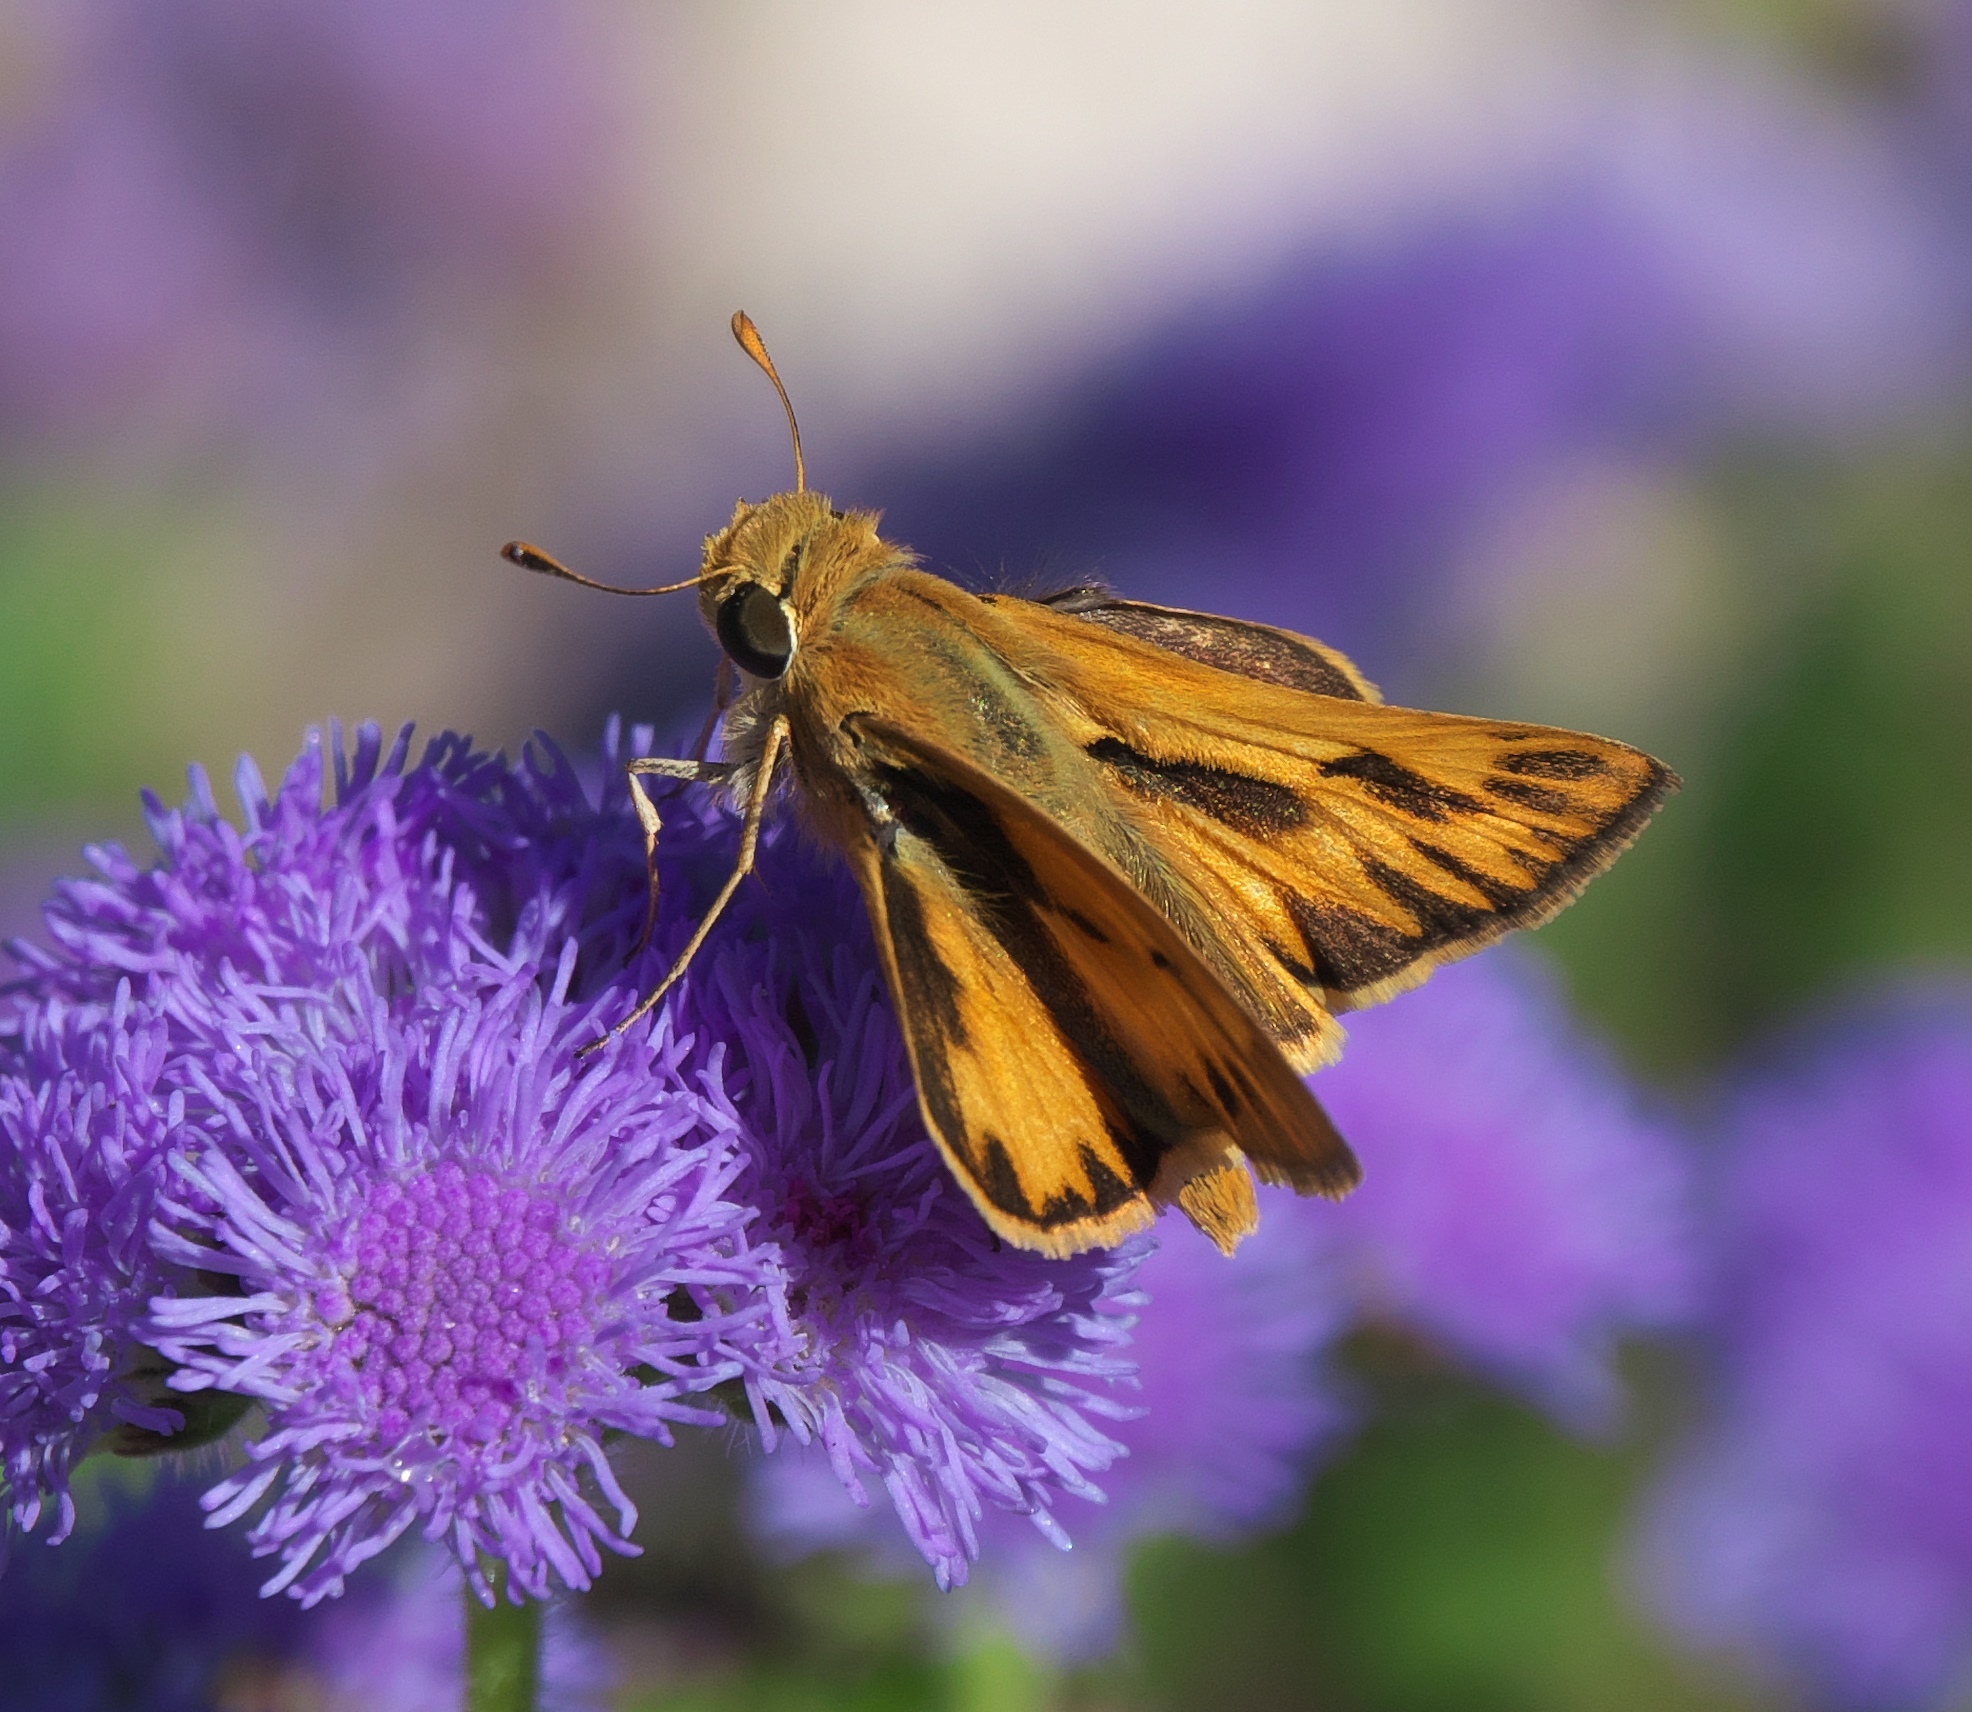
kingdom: Animalia
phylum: Arthropoda
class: Insecta
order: Lepidoptera
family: Hesperiidae
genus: Hylephila
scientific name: Hylephila phyleus
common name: Fiery skipper
